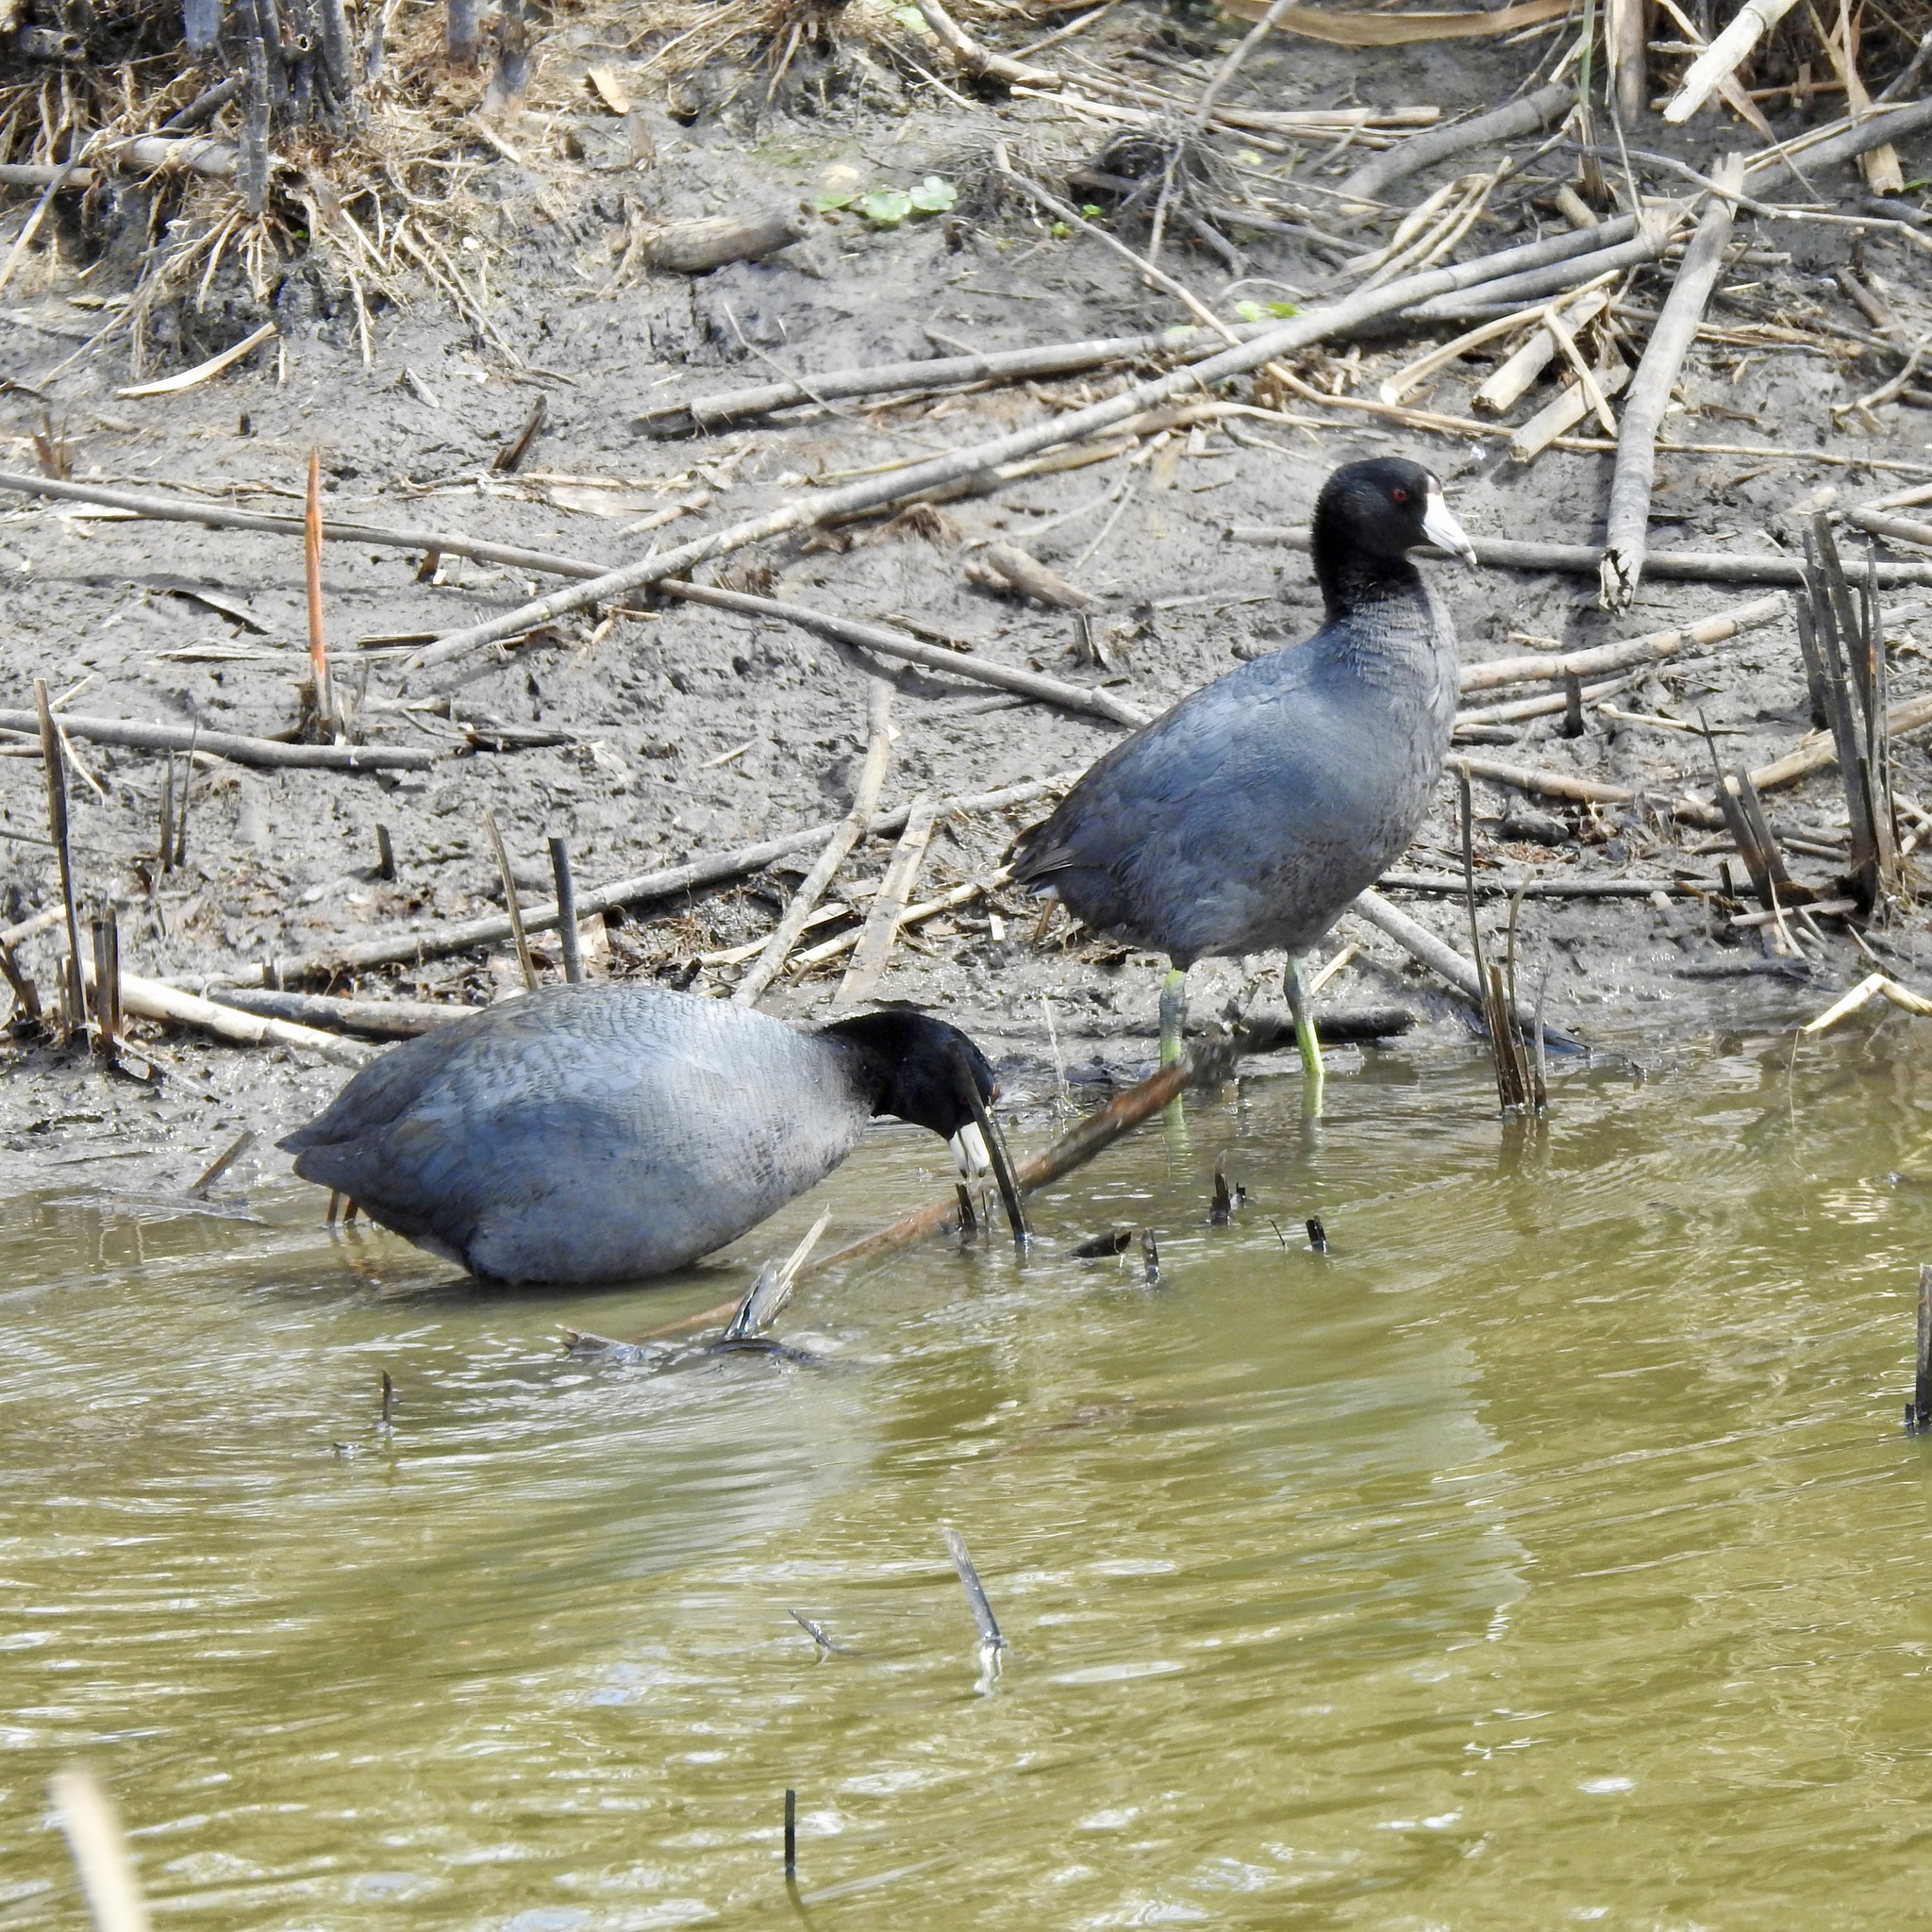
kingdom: Animalia
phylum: Chordata
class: Aves
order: Gruiformes
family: Rallidae
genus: Fulica
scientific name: Fulica americana
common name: American coot
